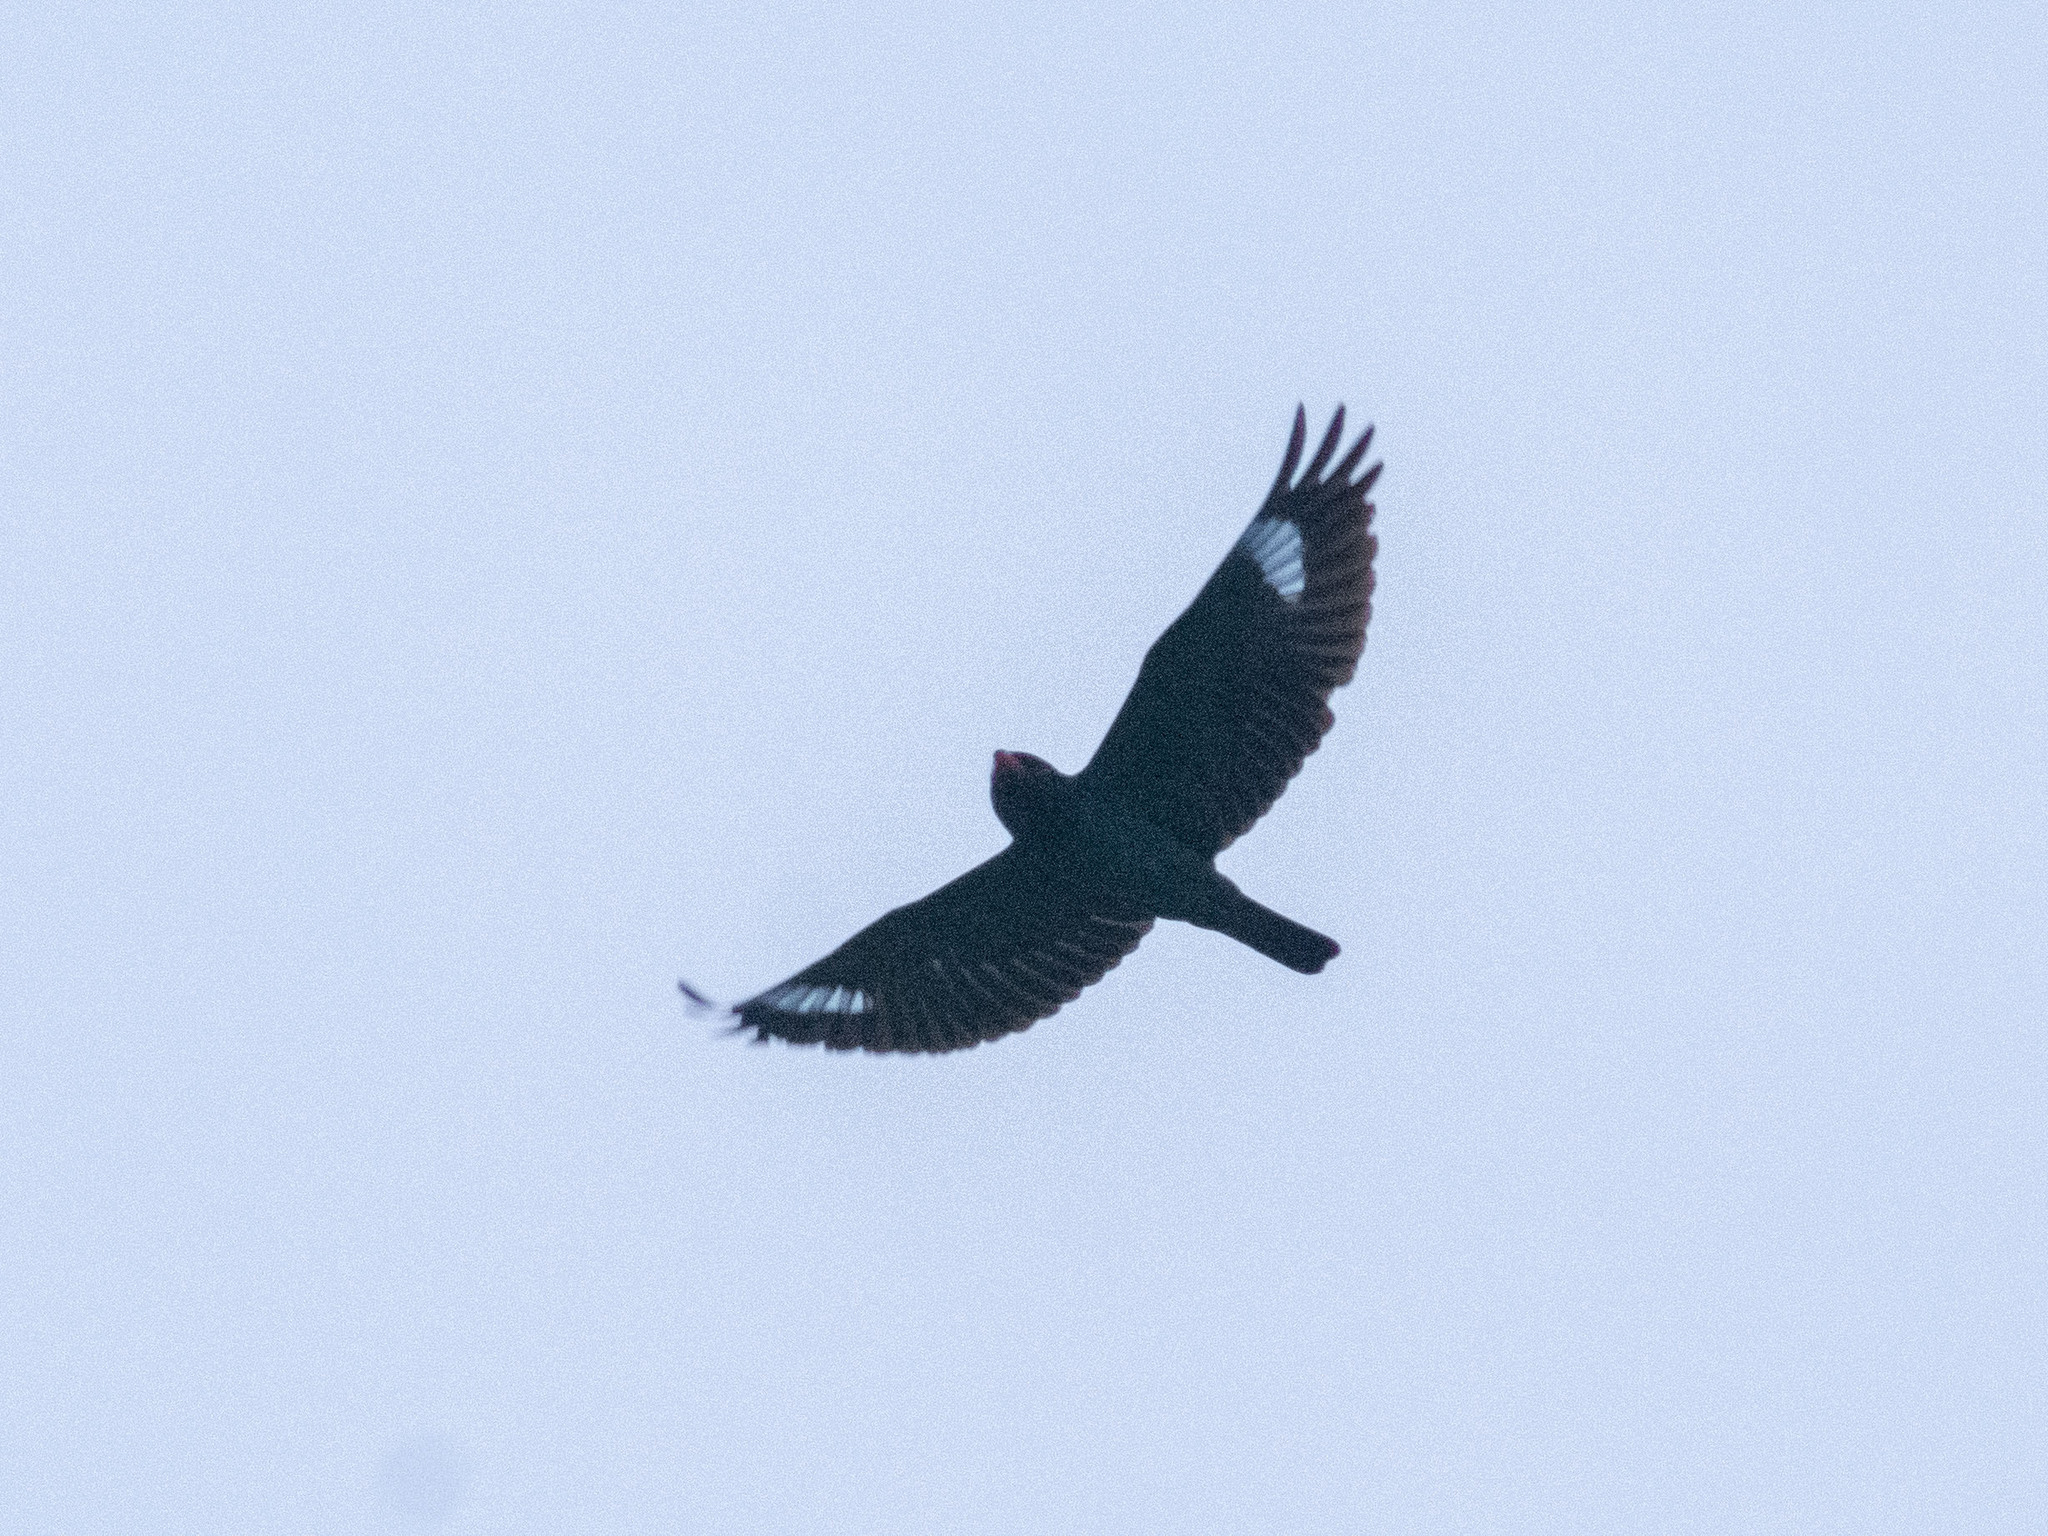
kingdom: Animalia
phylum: Chordata
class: Aves
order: Coraciiformes
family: Coraciidae
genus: Eurystomus
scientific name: Eurystomus orientalis
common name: Oriental dollarbird
